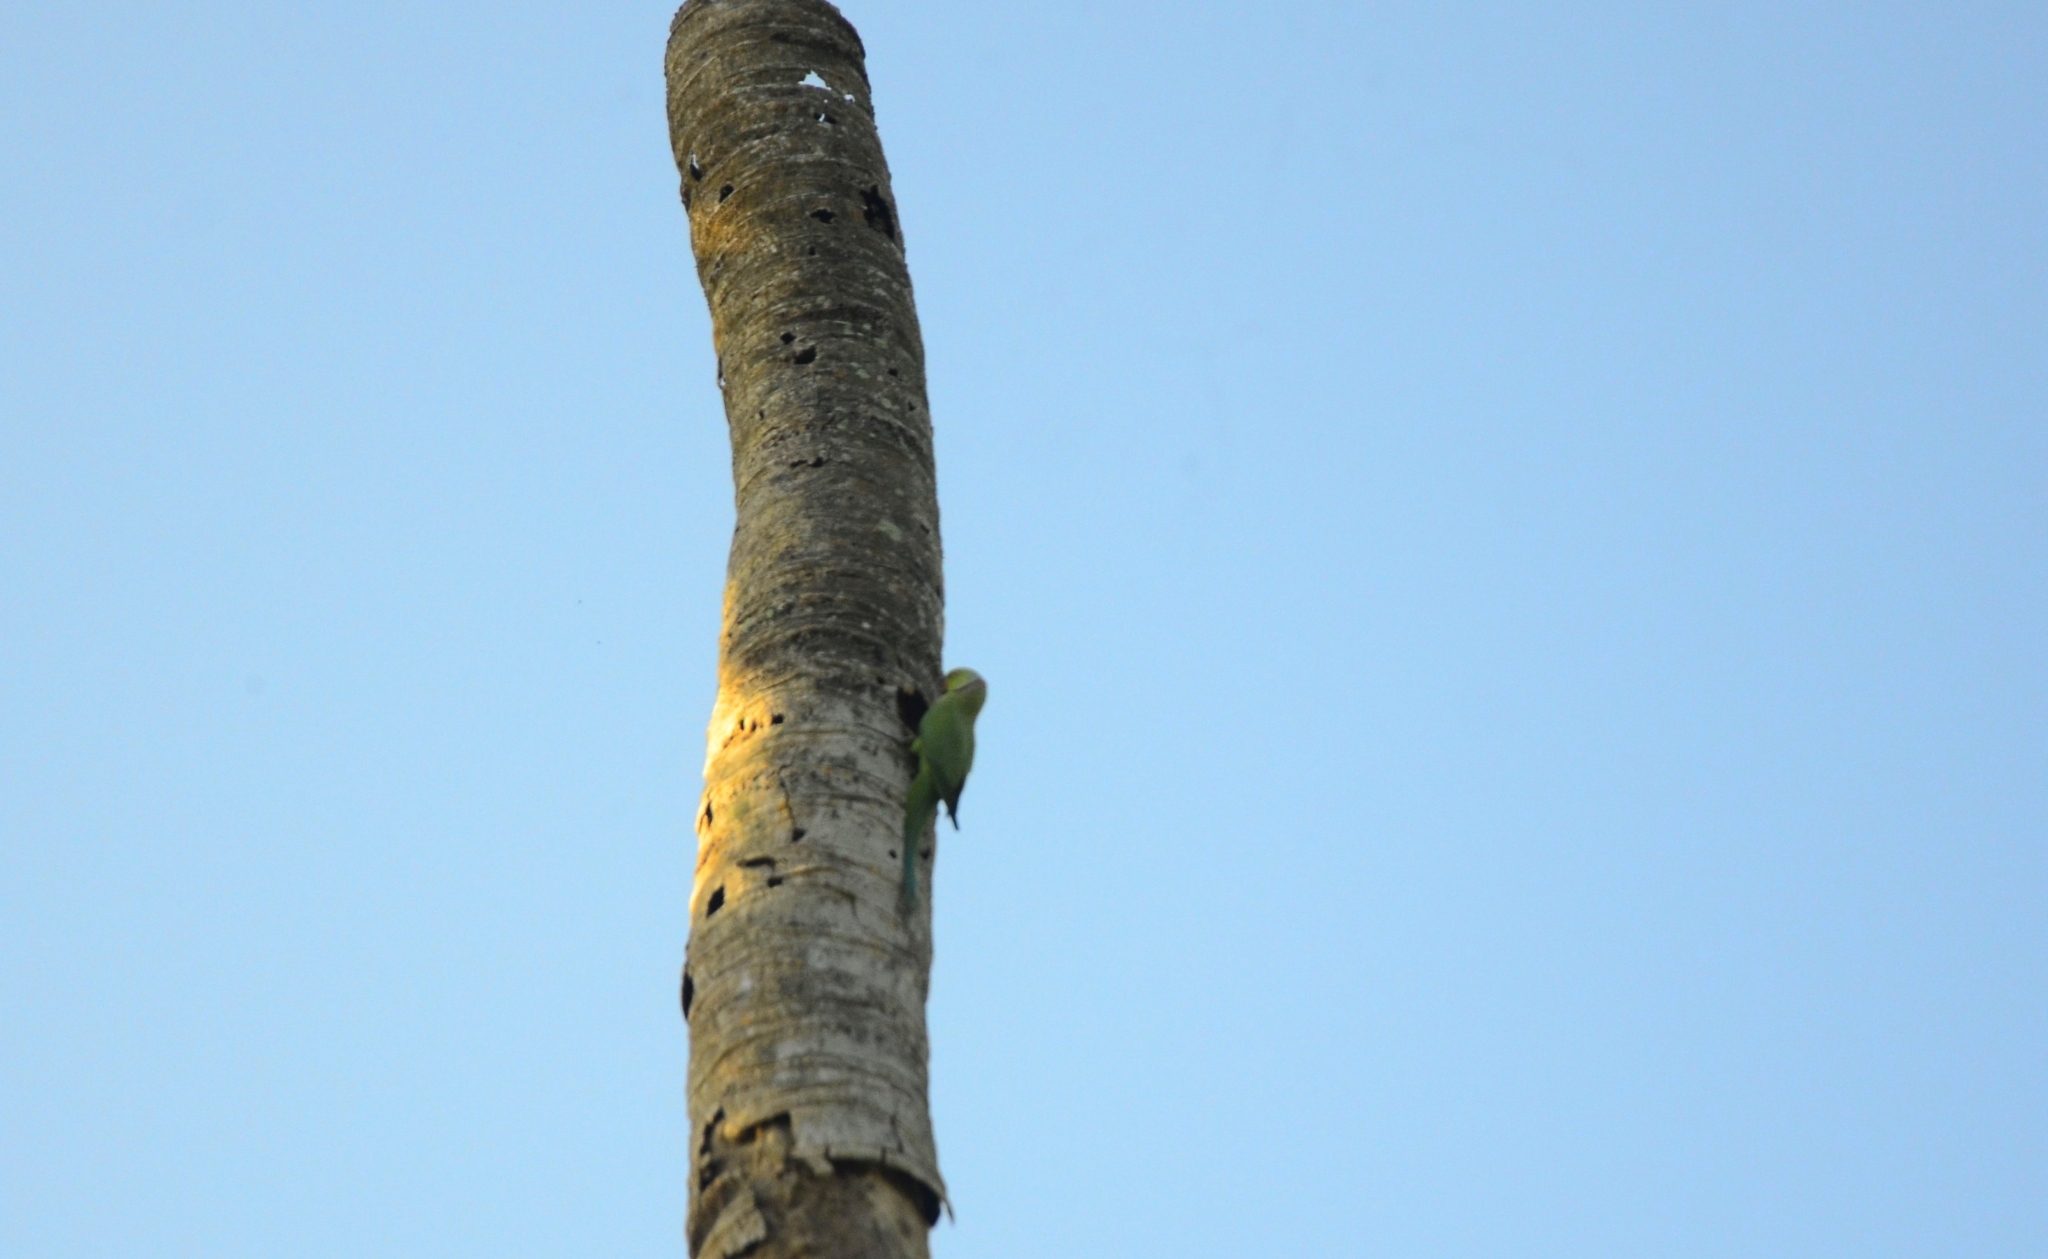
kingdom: Animalia
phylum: Chordata
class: Aves
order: Psittaciformes
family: Psittacidae
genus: Psittacula
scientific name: Psittacula krameri
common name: Rose-ringed parakeet
